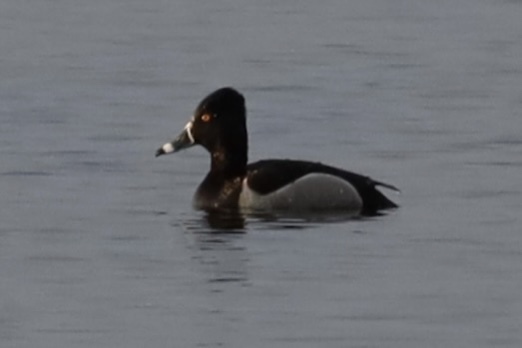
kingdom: Animalia
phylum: Chordata
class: Aves
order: Anseriformes
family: Anatidae
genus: Aythya
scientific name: Aythya collaris
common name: Ring-necked duck
